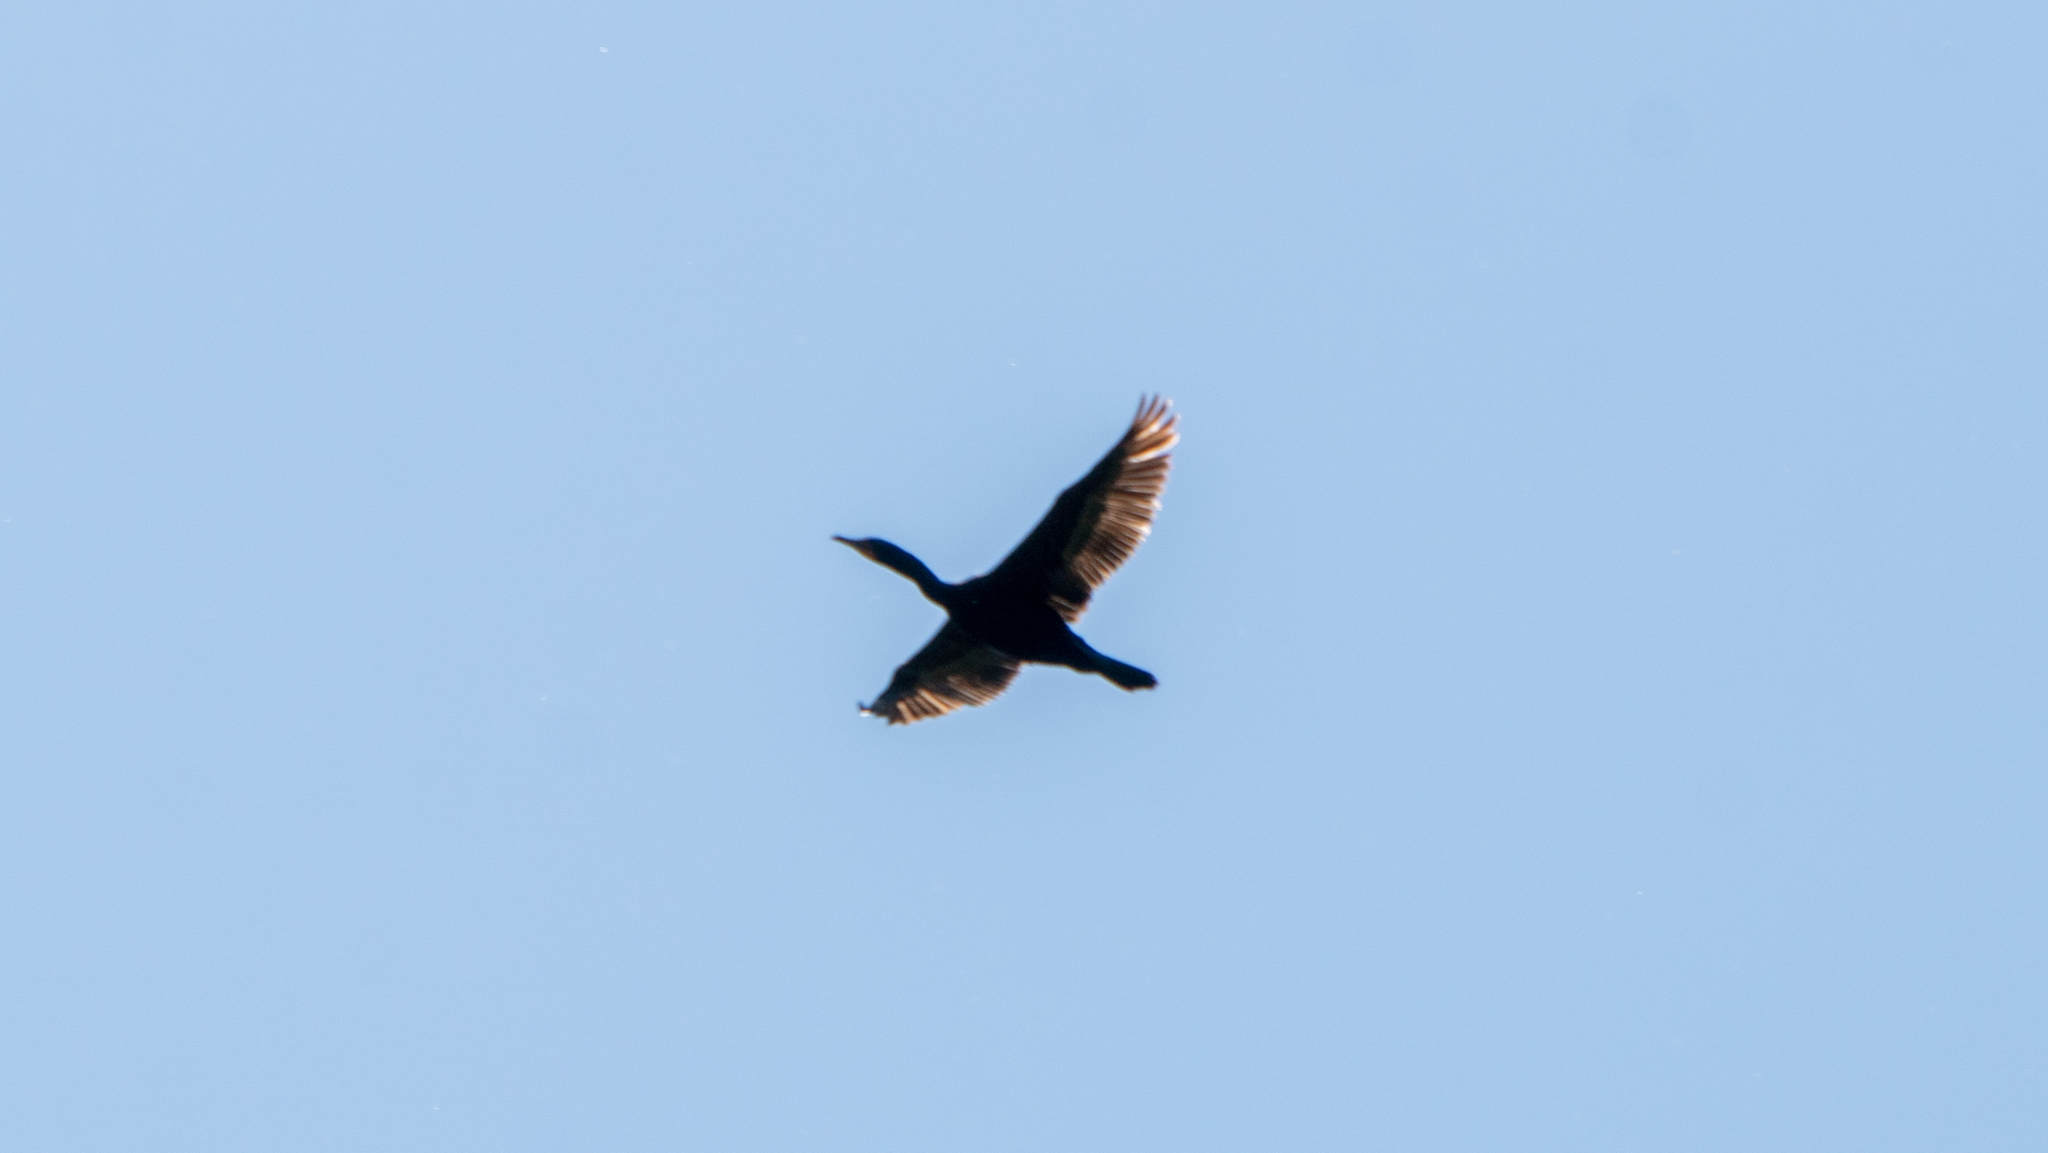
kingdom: Animalia
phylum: Chordata
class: Aves
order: Suliformes
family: Phalacrocoracidae
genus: Phalacrocorax
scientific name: Phalacrocorax auritus
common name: Double-crested cormorant
